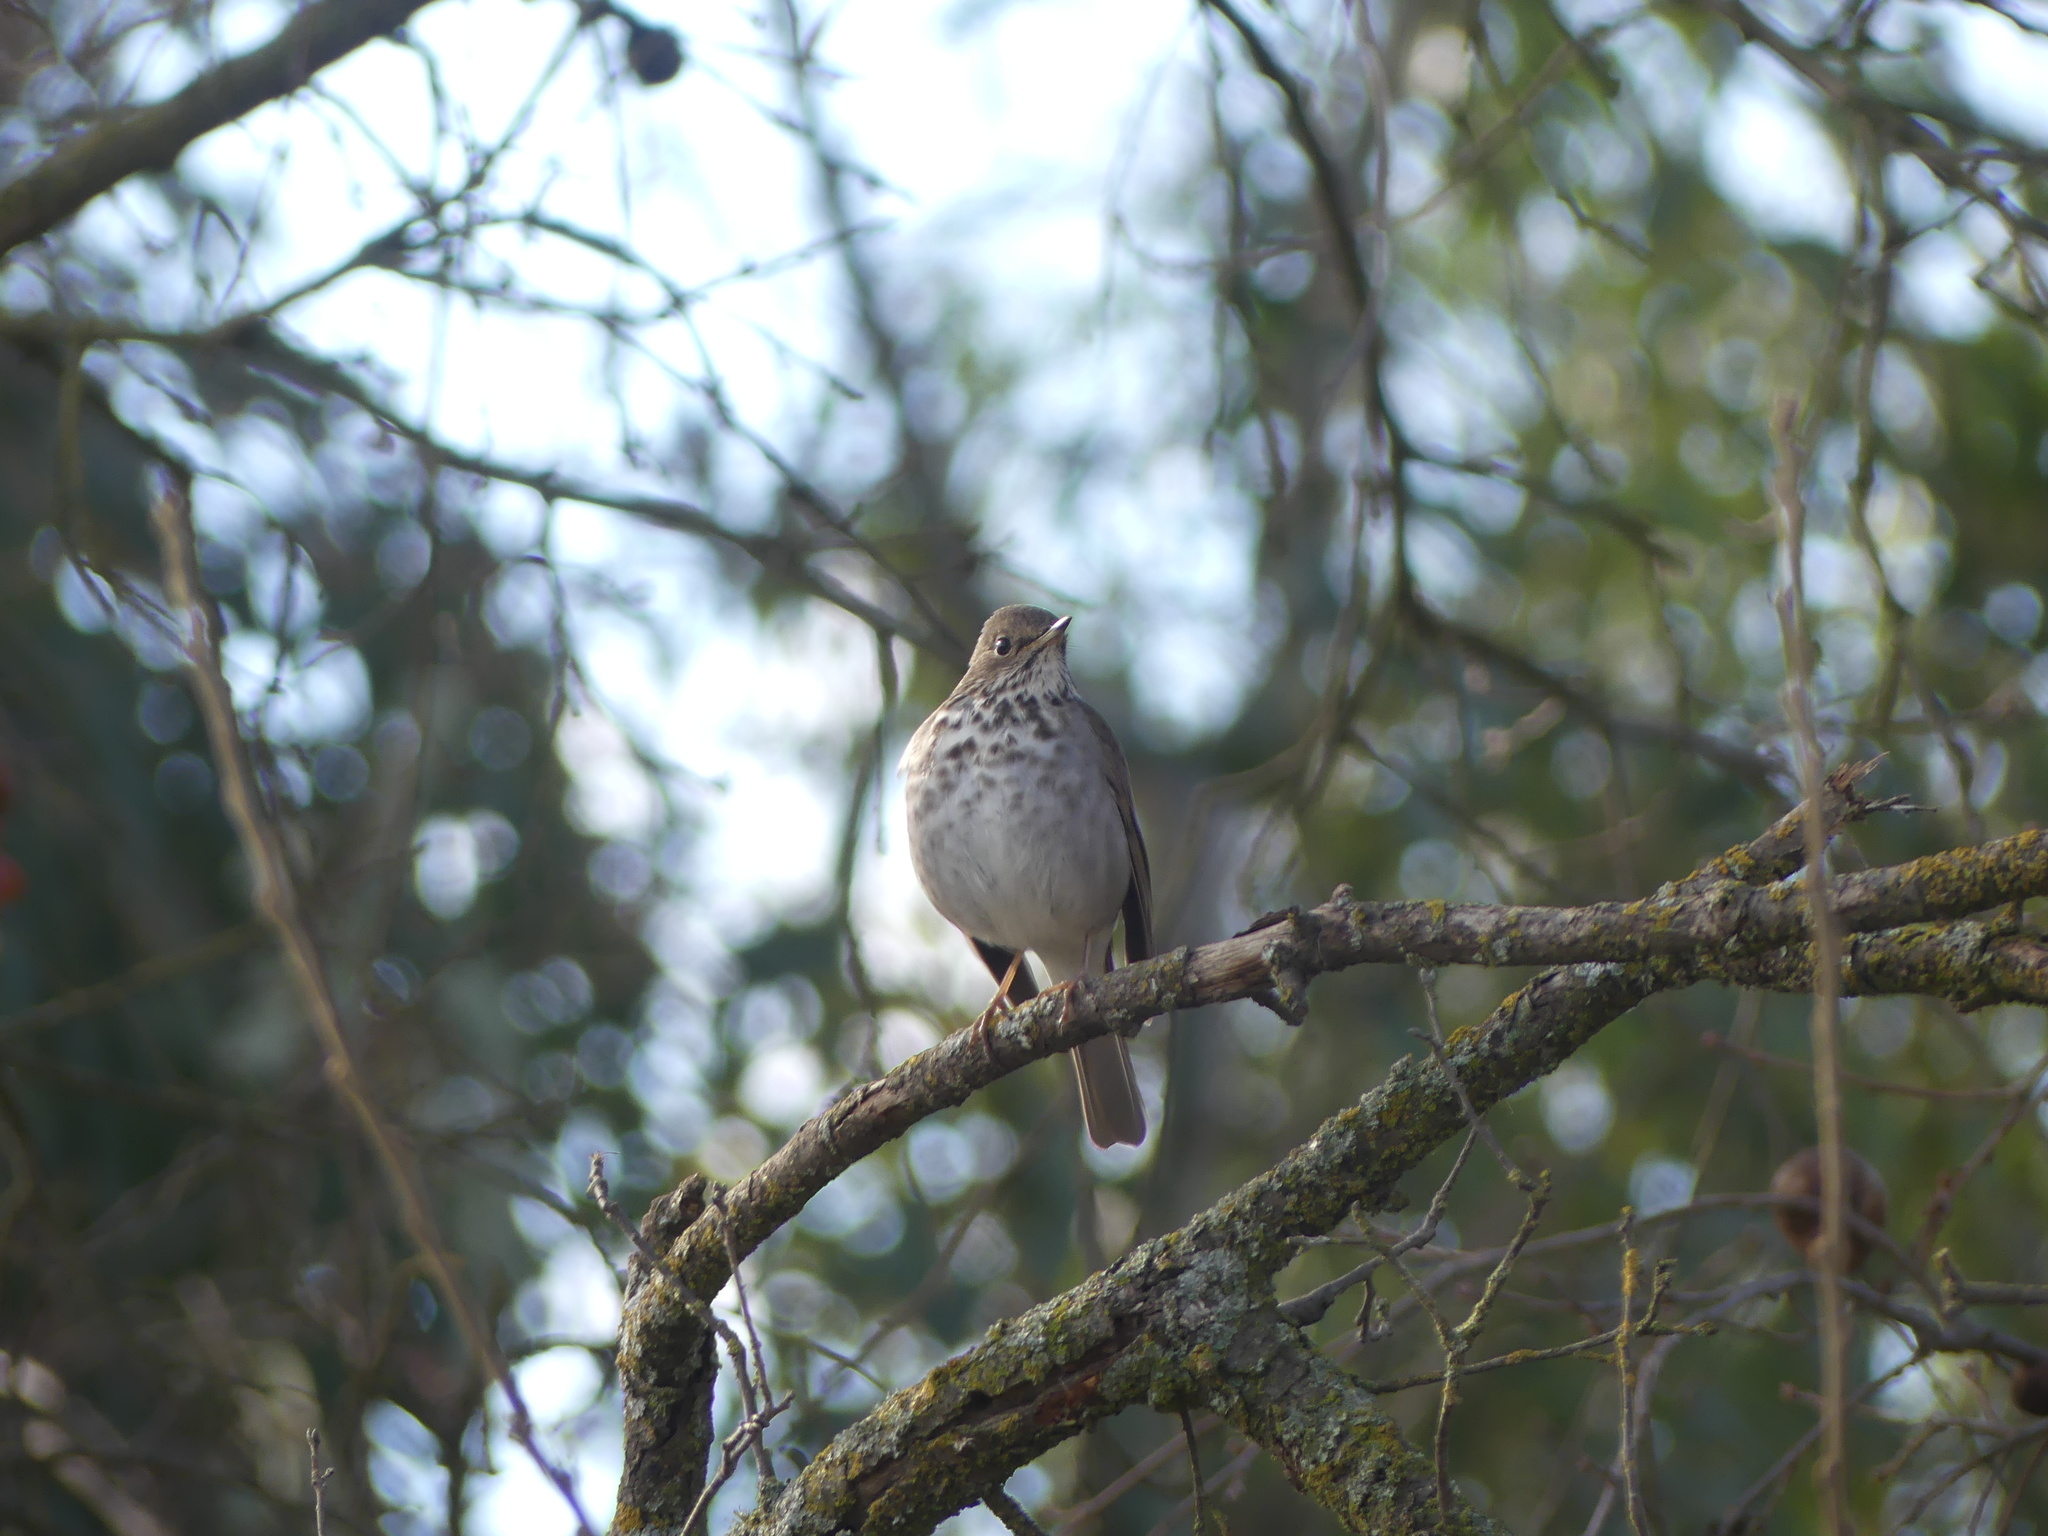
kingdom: Animalia
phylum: Chordata
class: Aves
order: Passeriformes
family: Turdidae
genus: Catharus
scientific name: Catharus guttatus
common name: Hermit thrush
